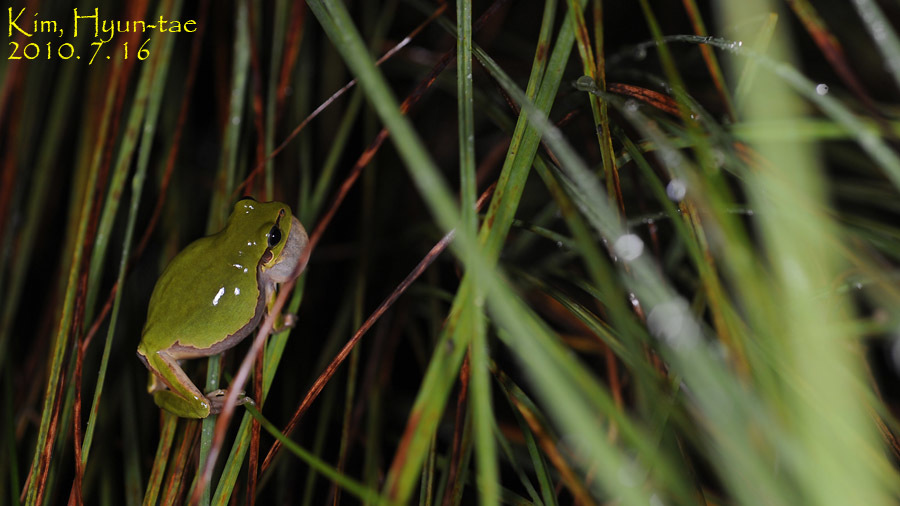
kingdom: Animalia
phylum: Chordata
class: Amphibia
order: Anura
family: Hylidae
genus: Dryophytes
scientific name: Dryophytes japonicus
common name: Japanese treefrog
